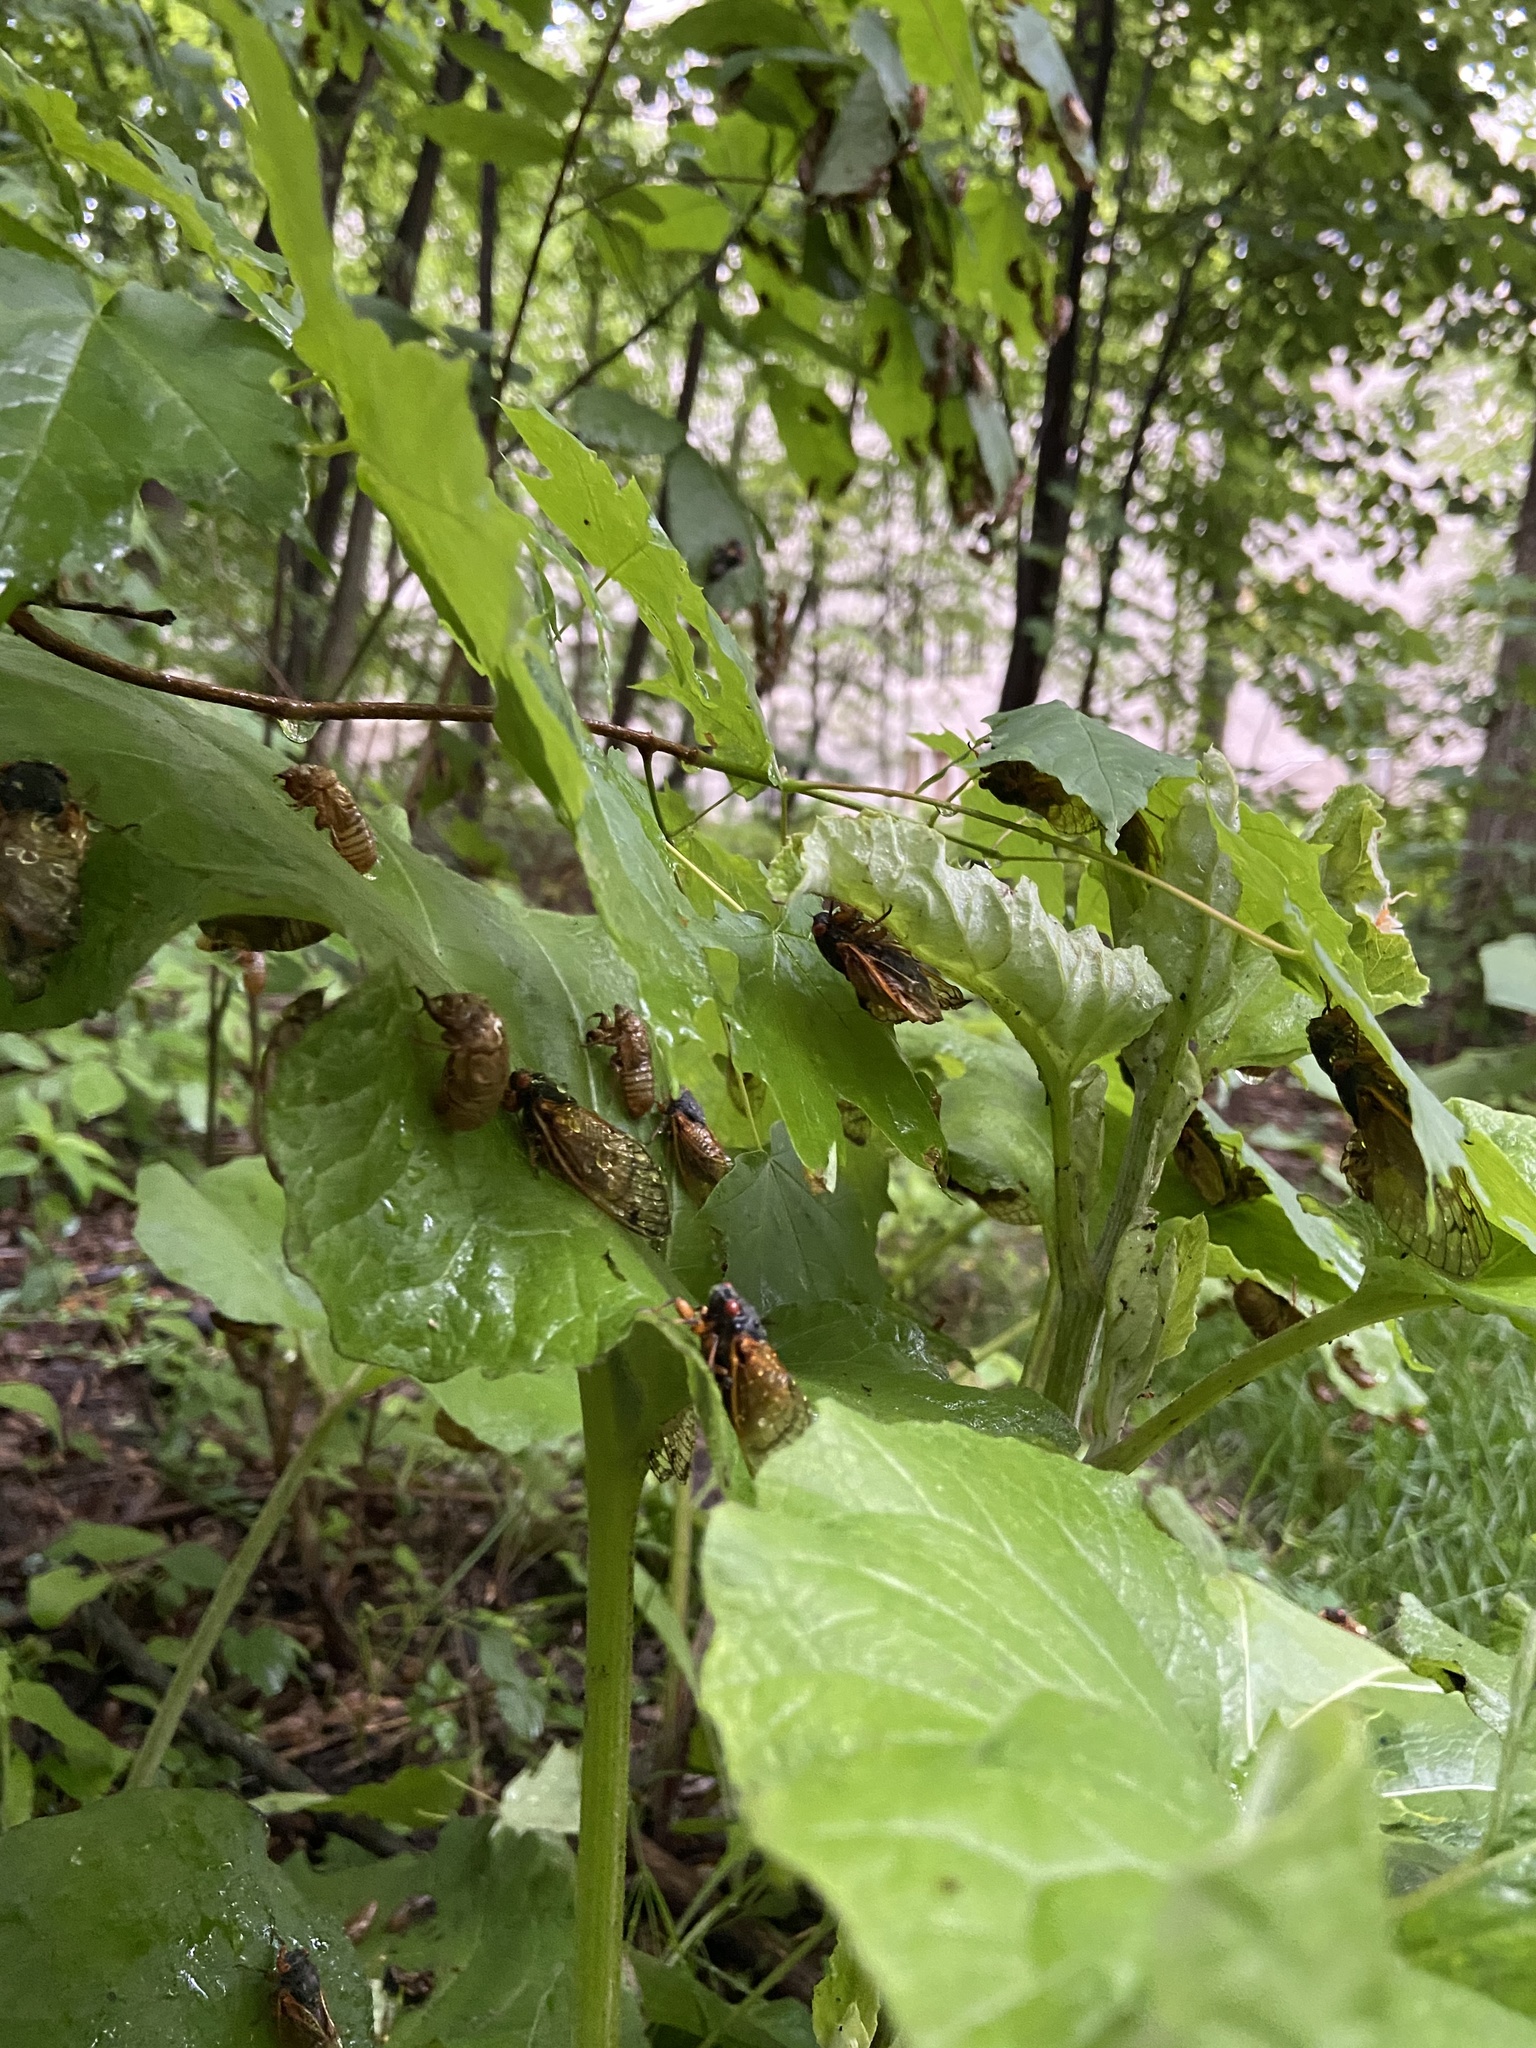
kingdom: Animalia
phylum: Arthropoda
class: Insecta
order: Hemiptera
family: Cicadidae
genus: Magicicada
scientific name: Magicicada
